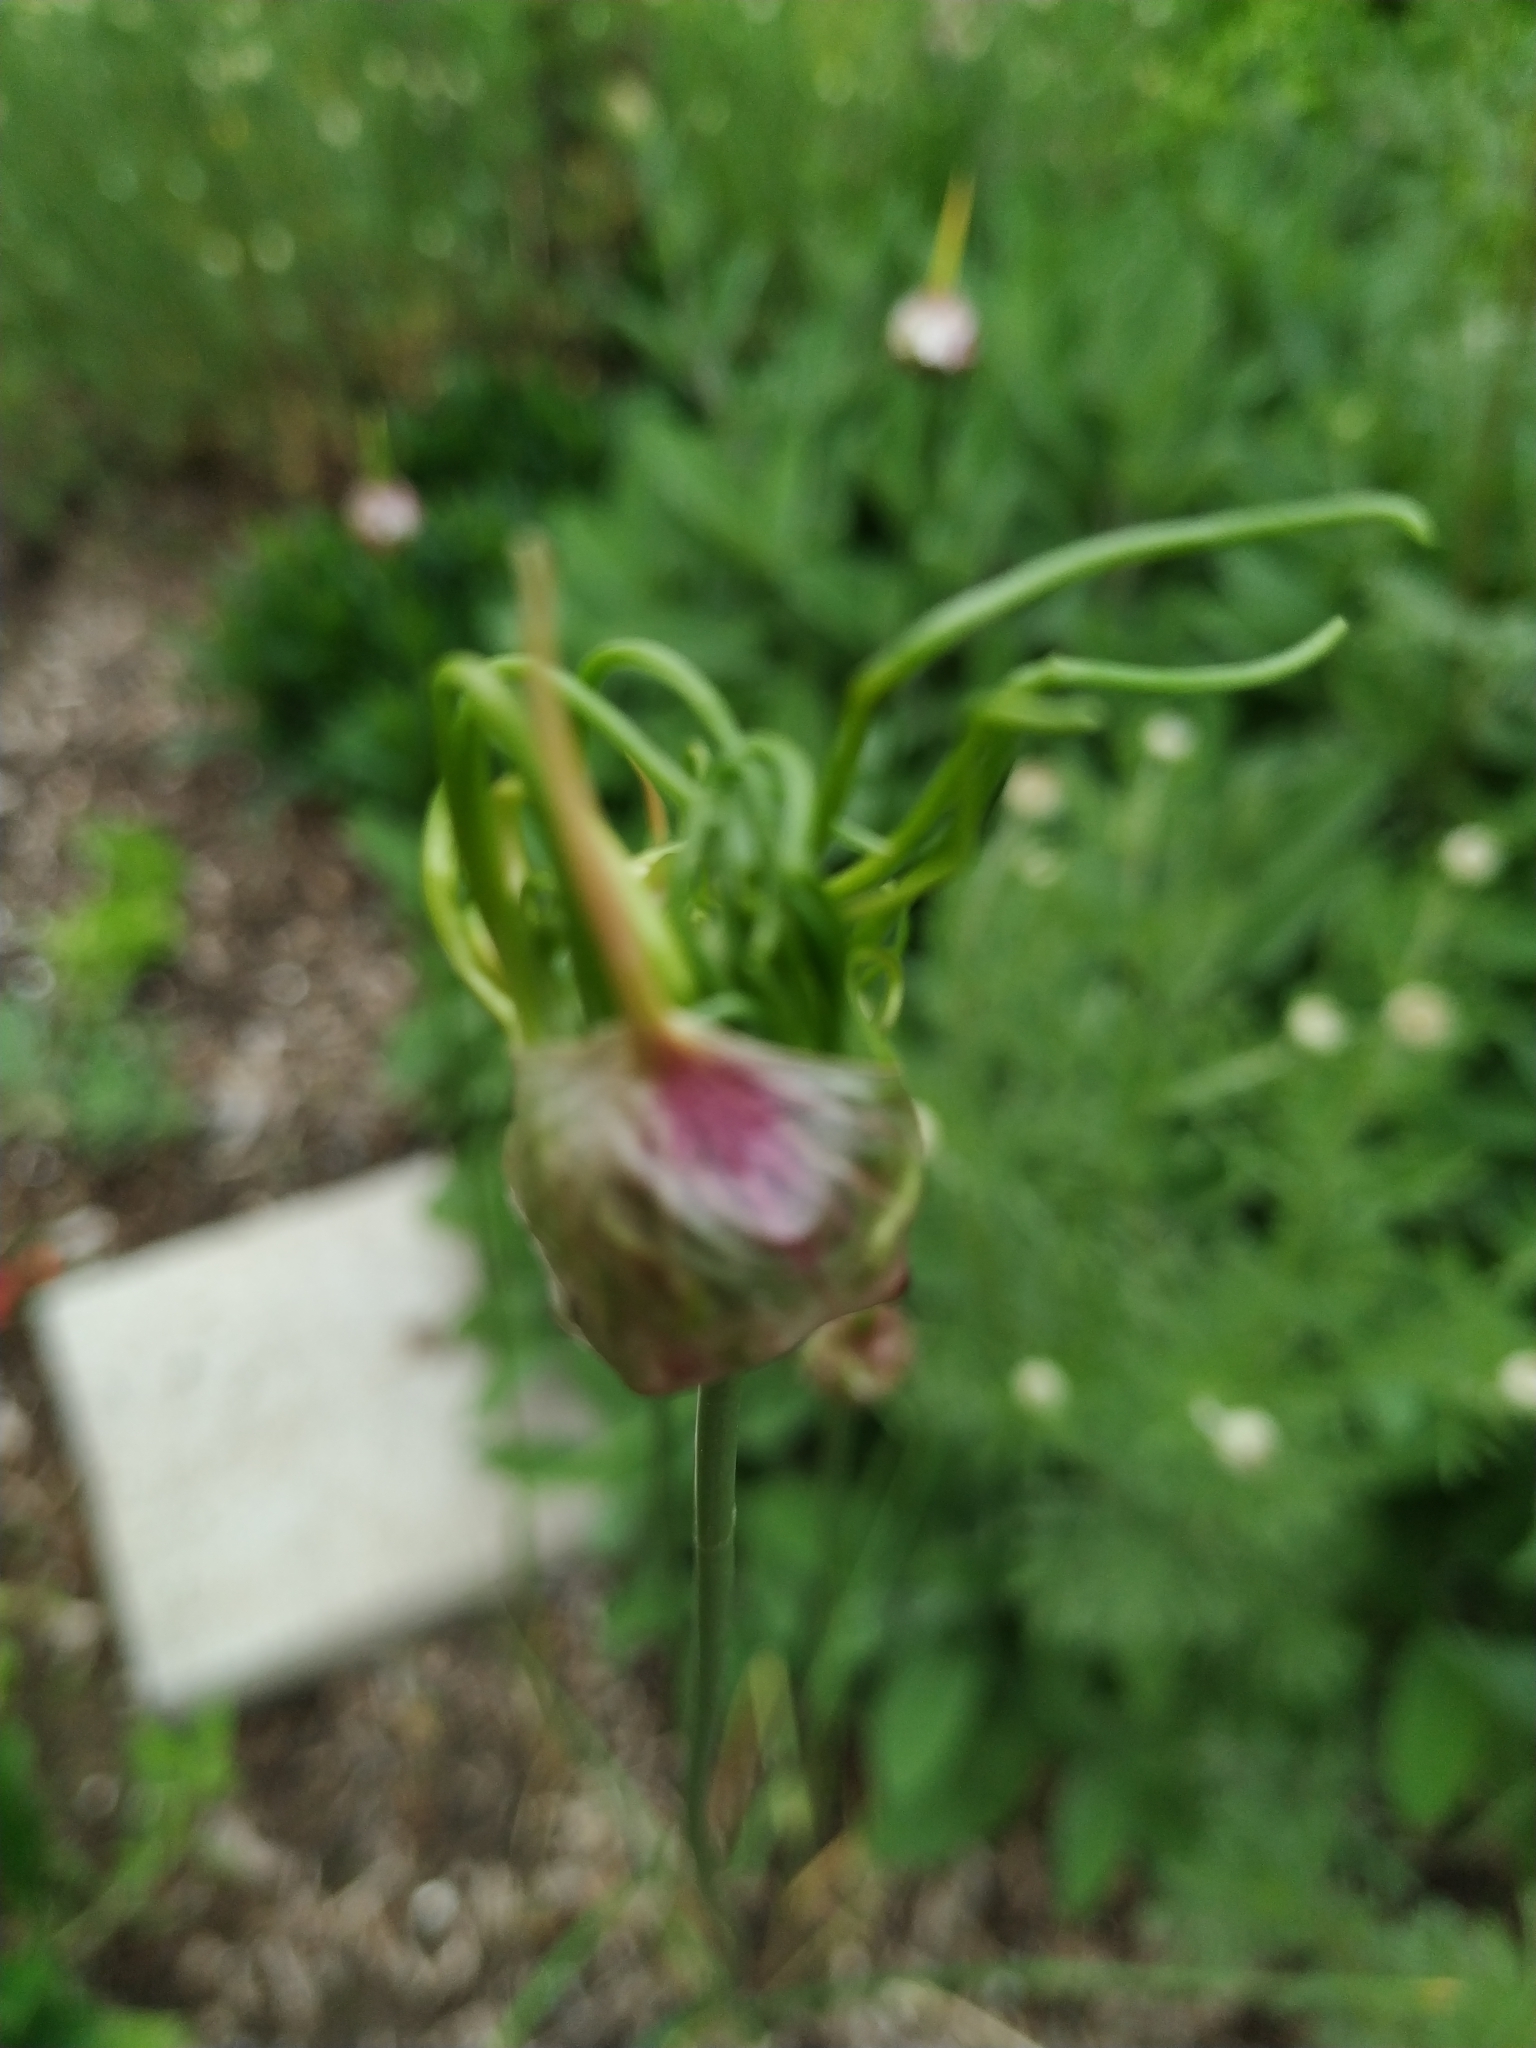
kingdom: Plantae
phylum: Tracheophyta
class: Liliopsida
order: Asparagales
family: Amaryllidaceae
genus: Allium
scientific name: Allium vineale
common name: Crow garlic
